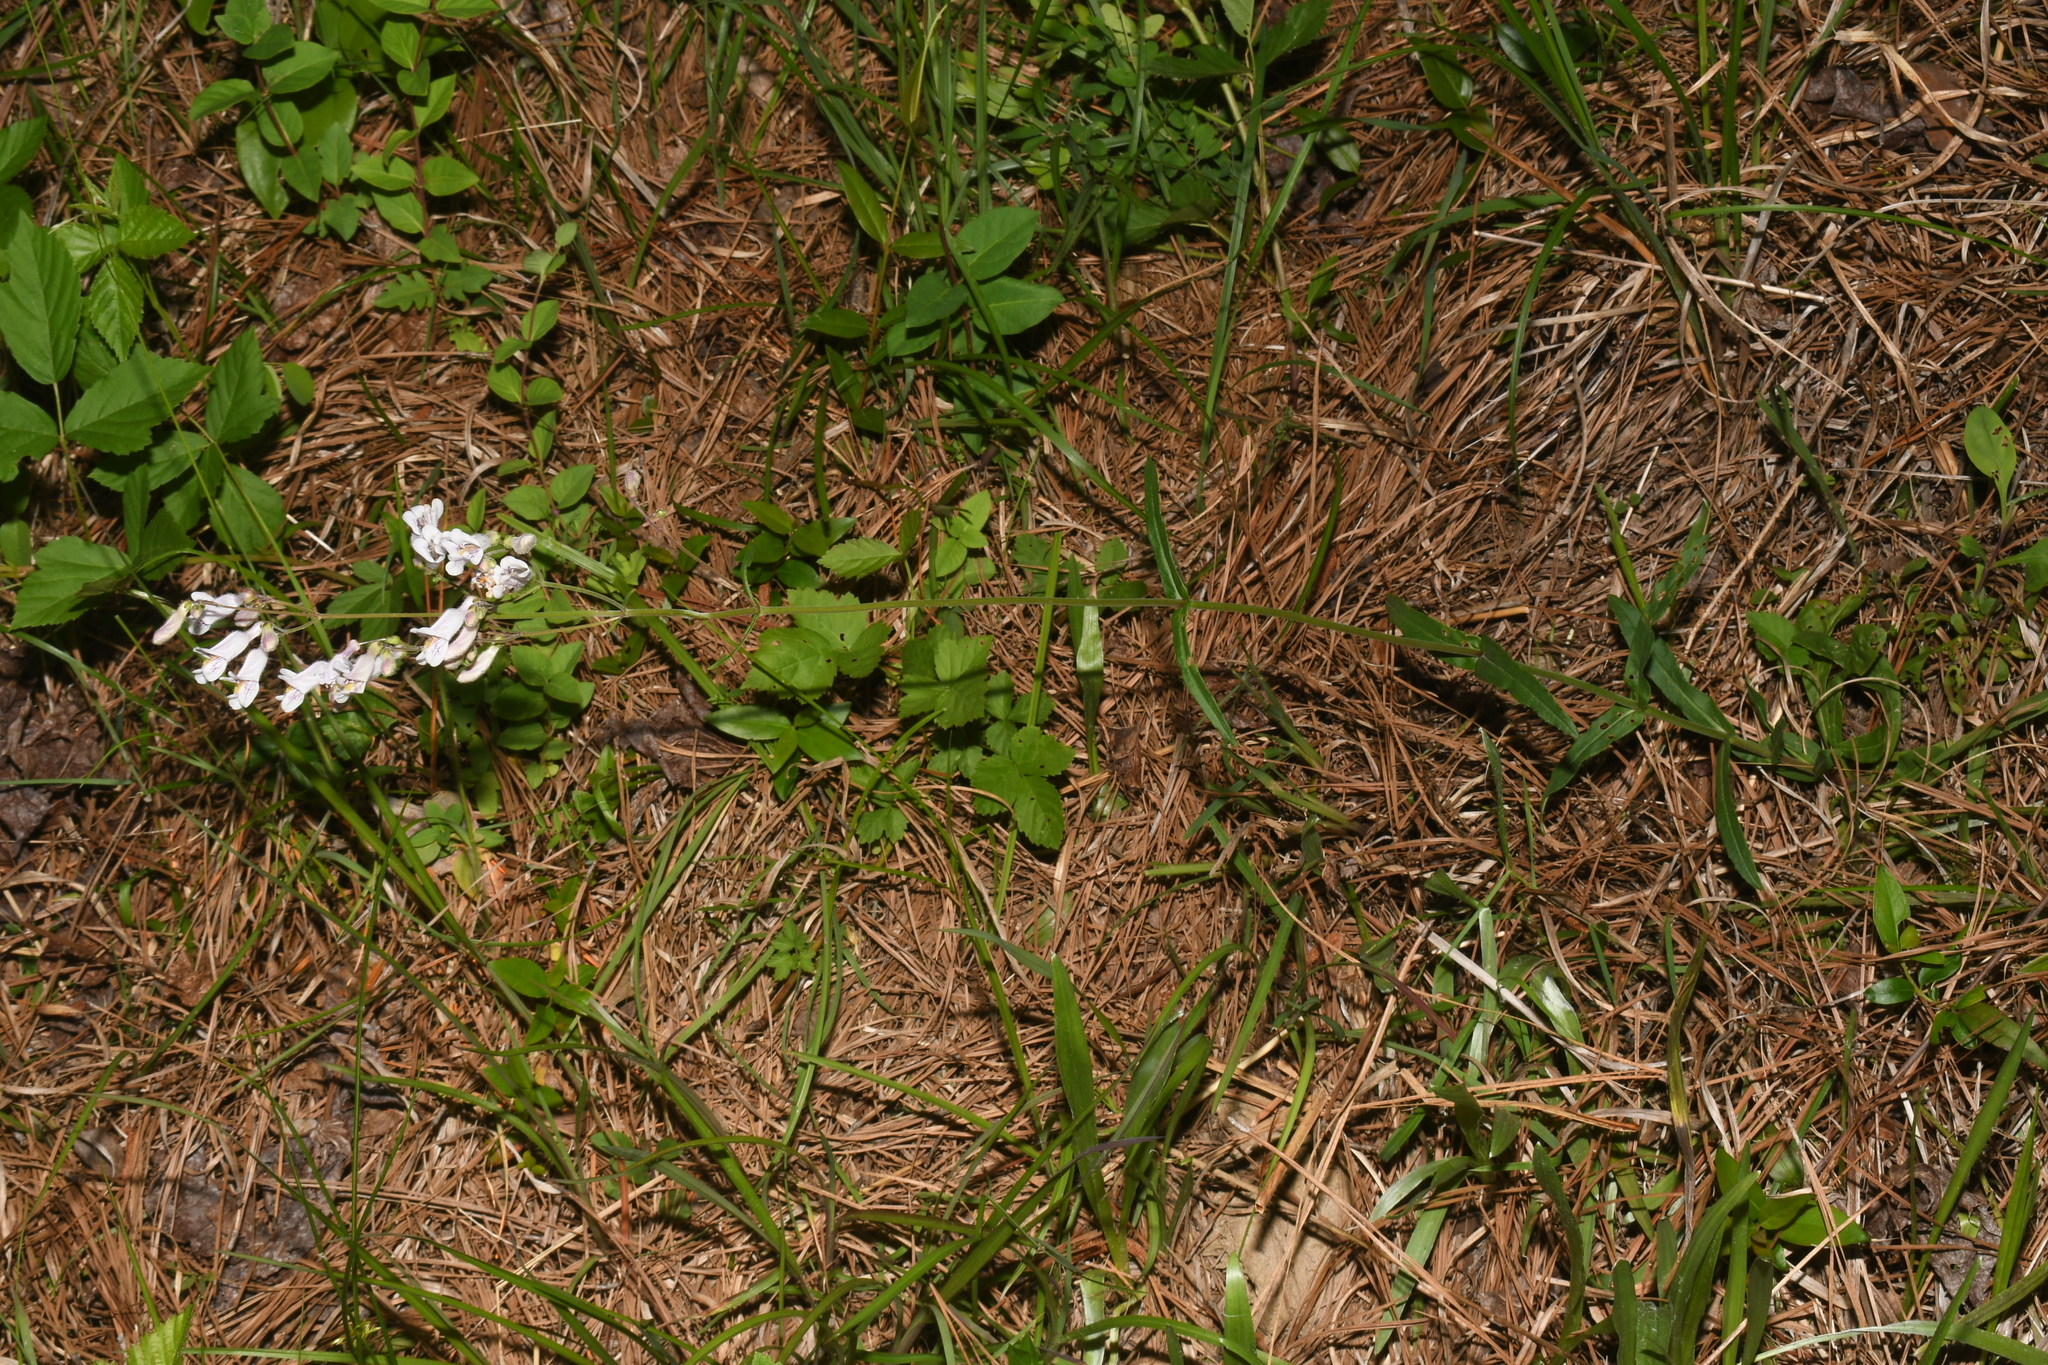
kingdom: Plantae
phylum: Tracheophyta
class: Magnoliopsida
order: Lamiales
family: Plantaginaceae
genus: Penstemon
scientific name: Penstemon laxiflorus
